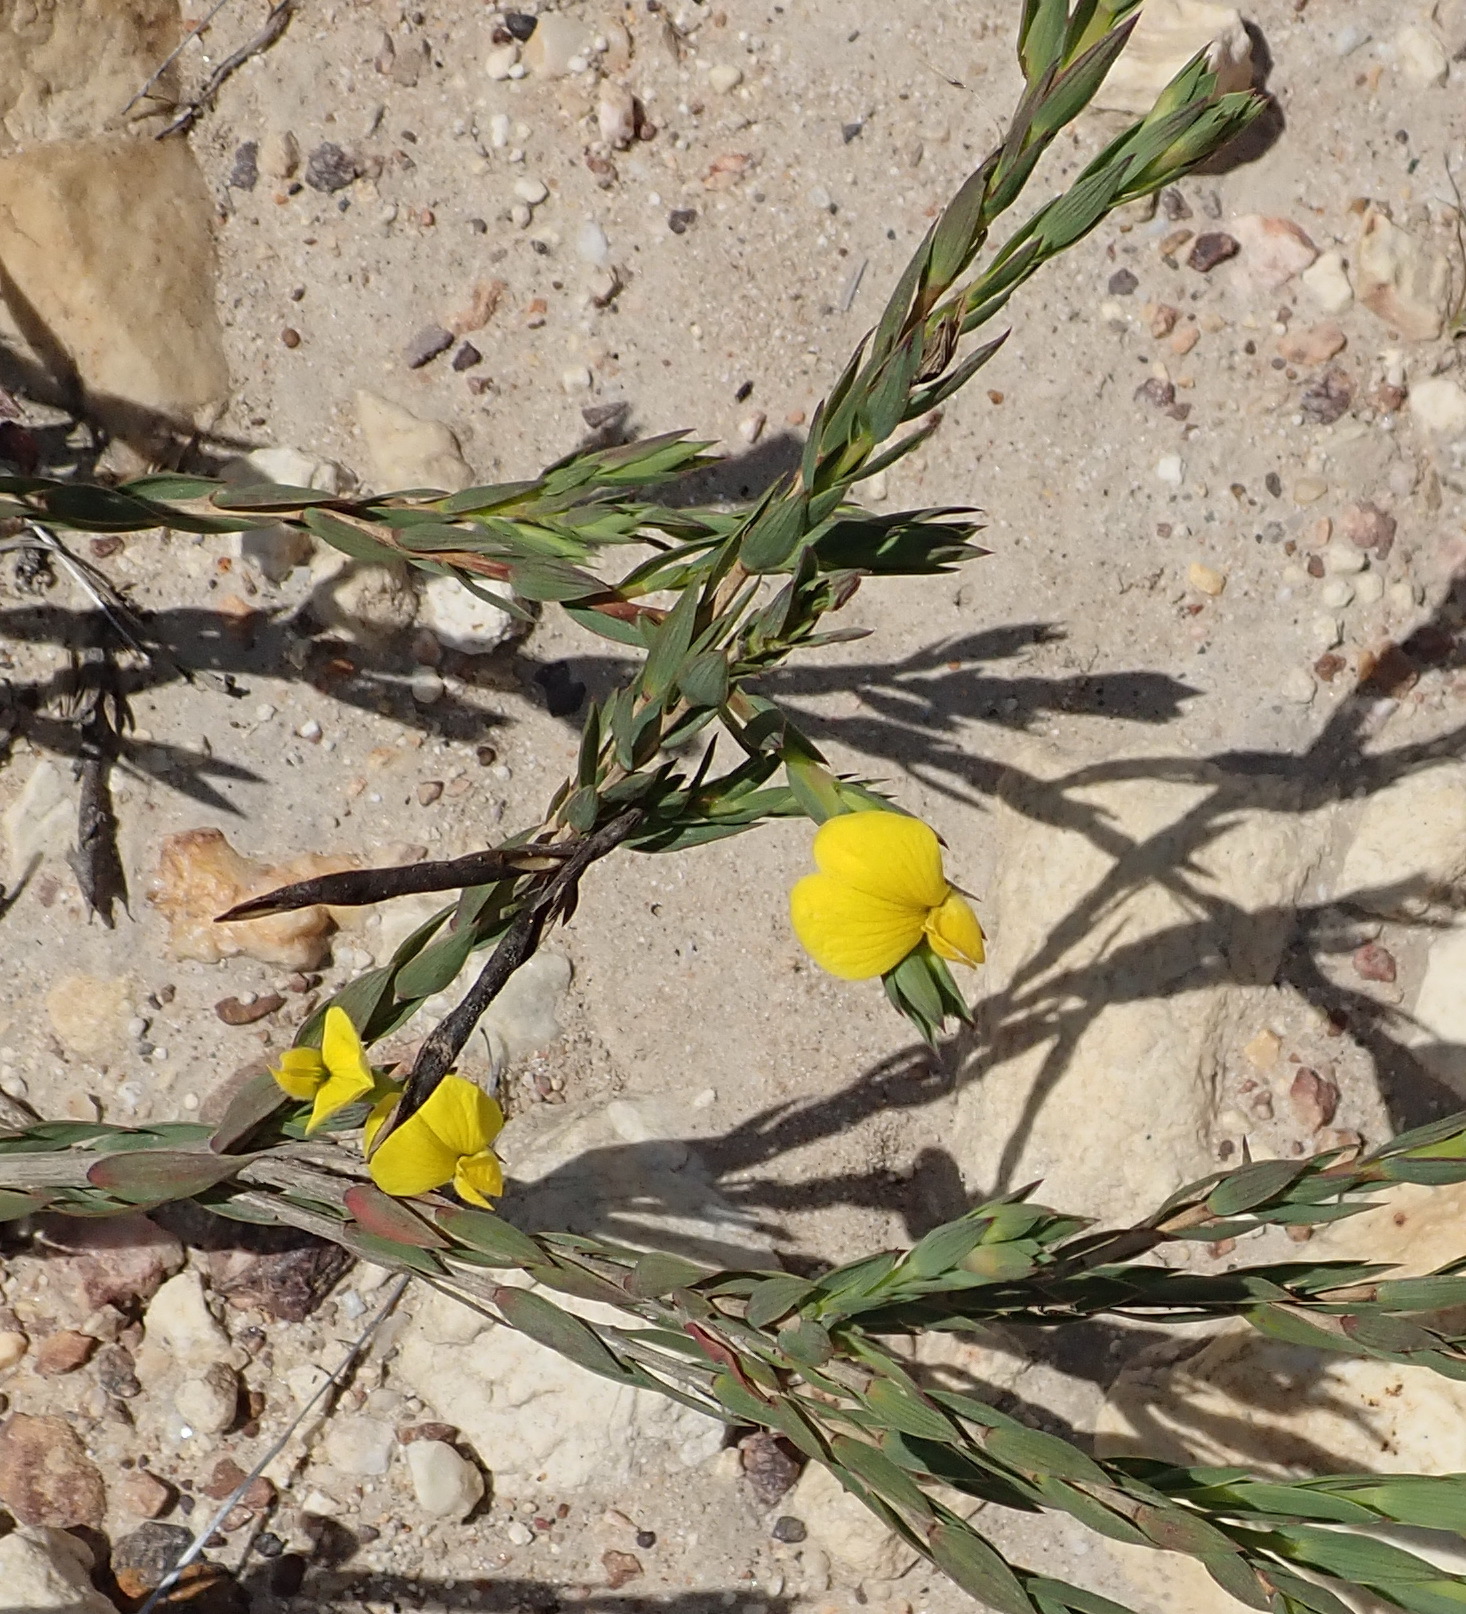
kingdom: Plantae
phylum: Tracheophyta
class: Magnoliopsida
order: Fabales
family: Fabaceae
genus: Aspalathus
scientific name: Aspalathus angustifolia
